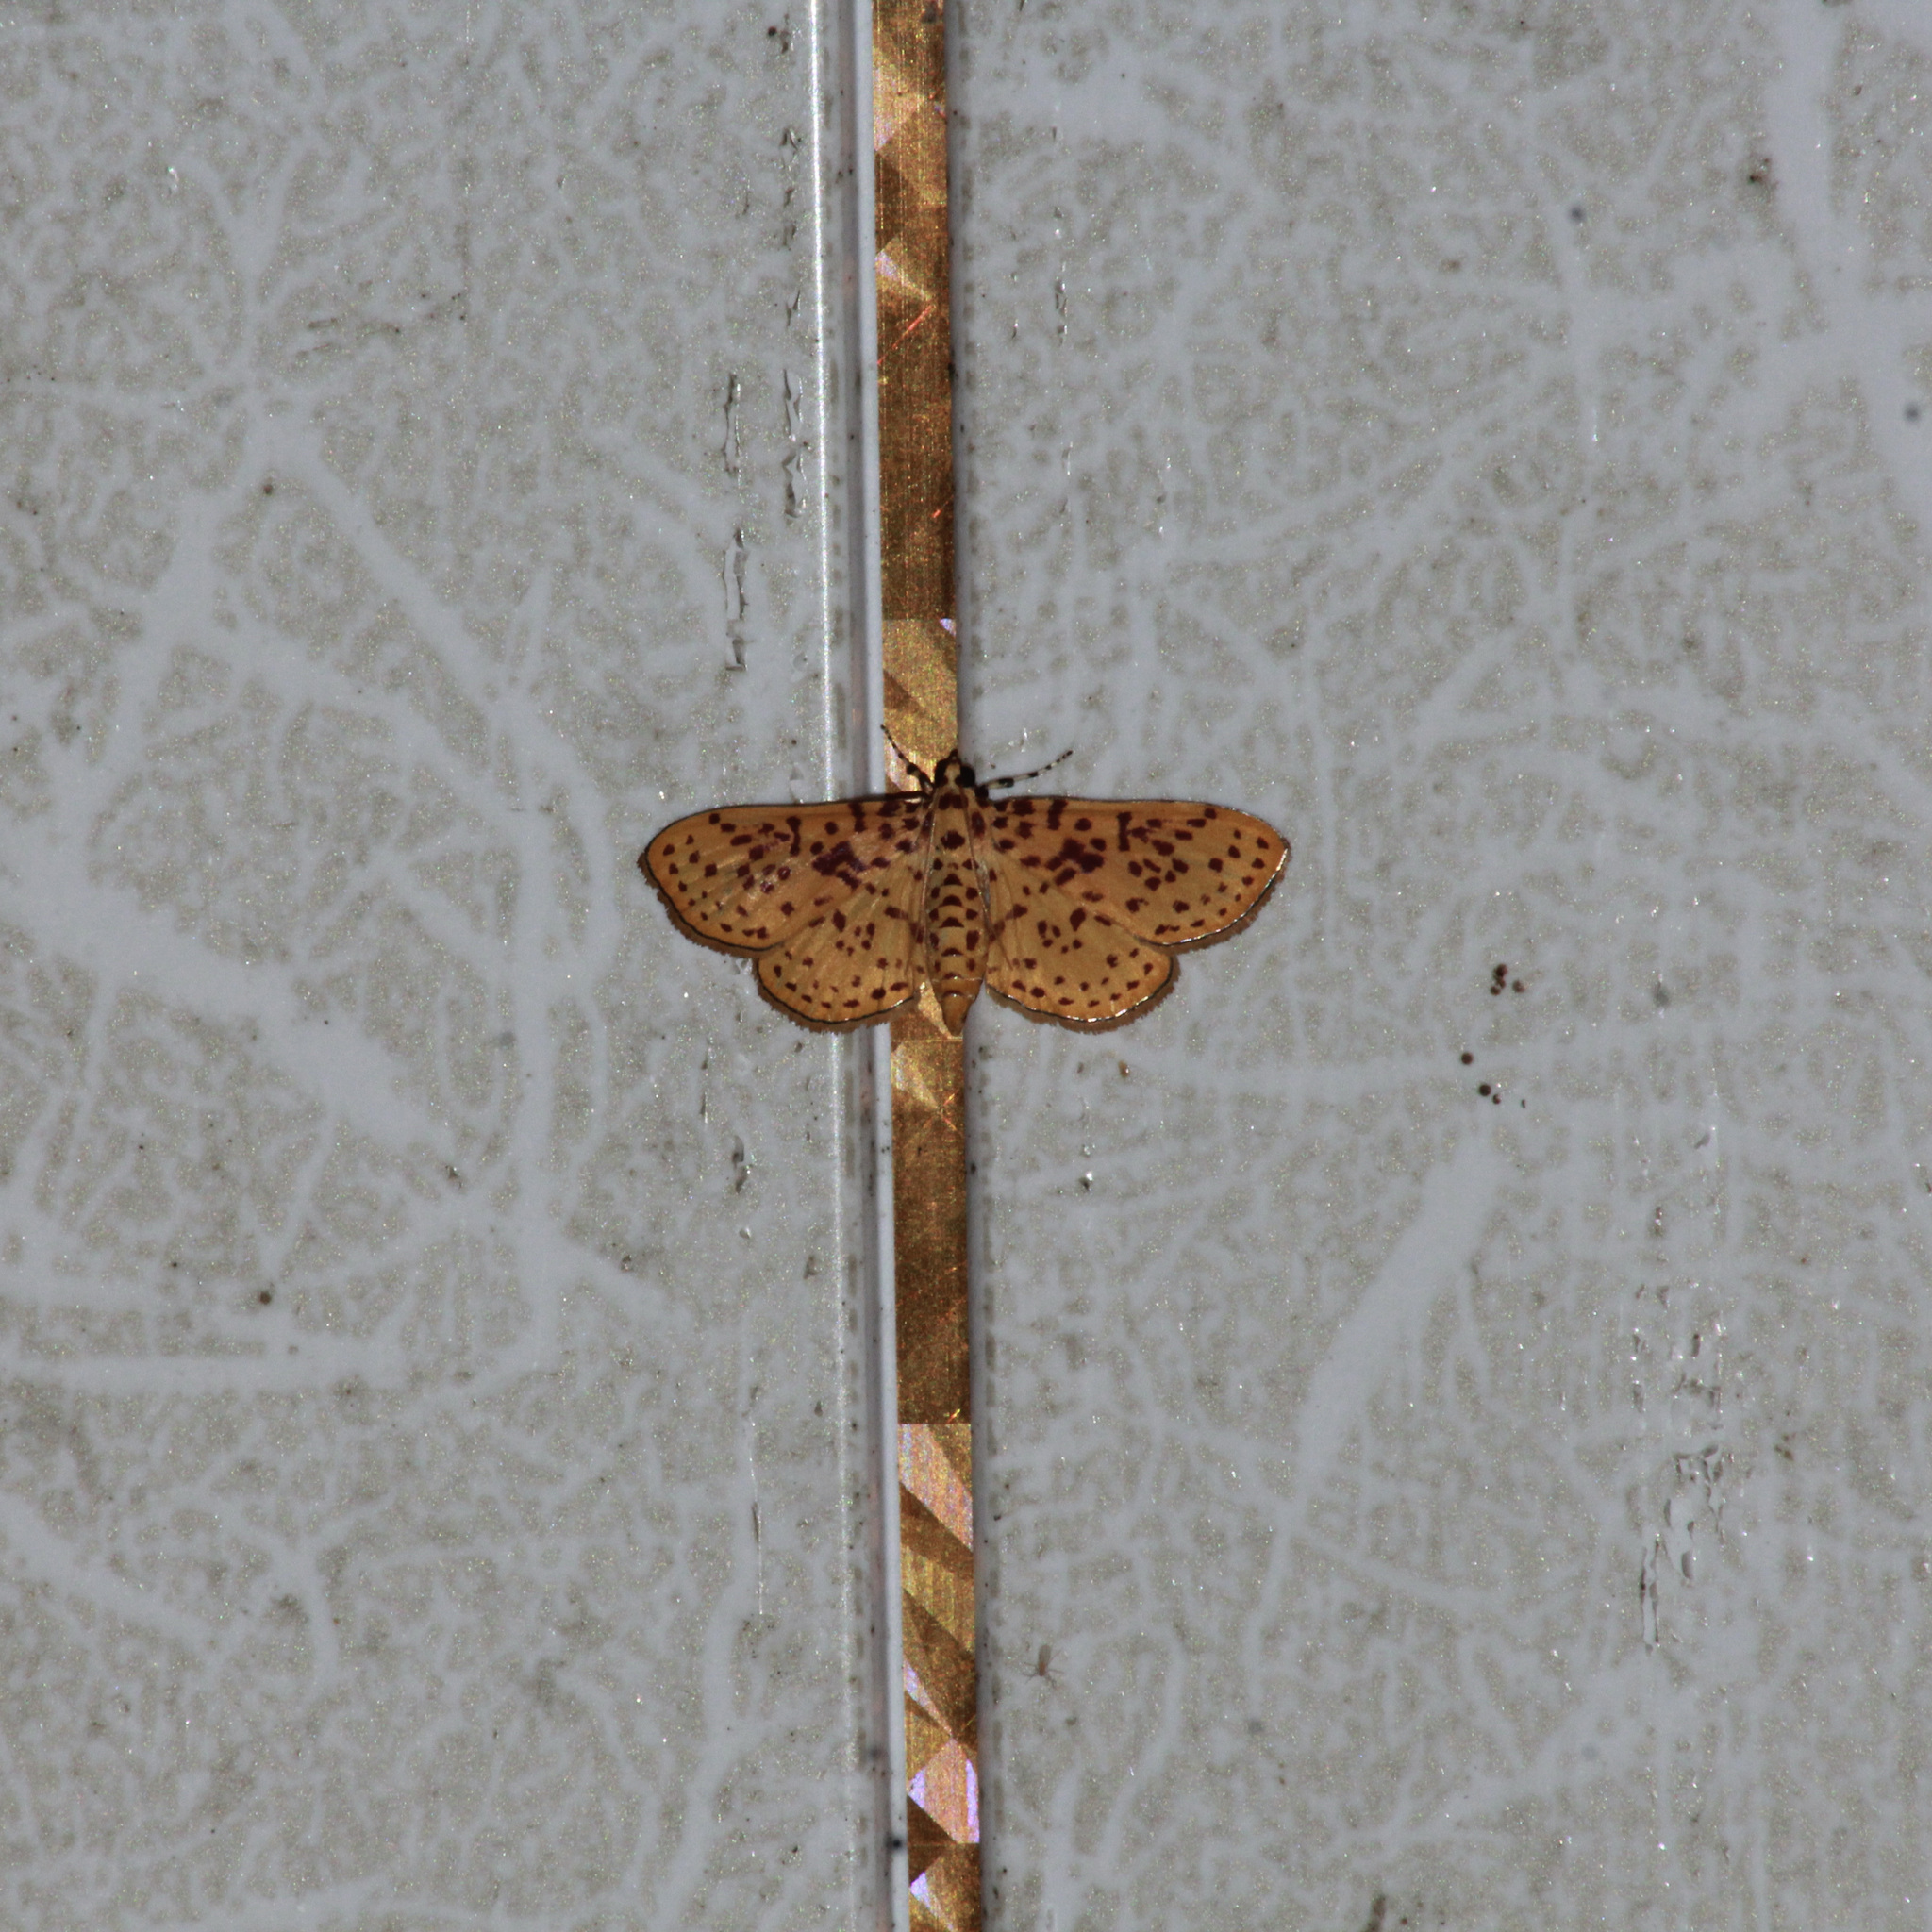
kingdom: Animalia
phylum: Arthropoda
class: Insecta
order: Lepidoptera
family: Crambidae
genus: Polygrammodes
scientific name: Polygrammodes elevata
